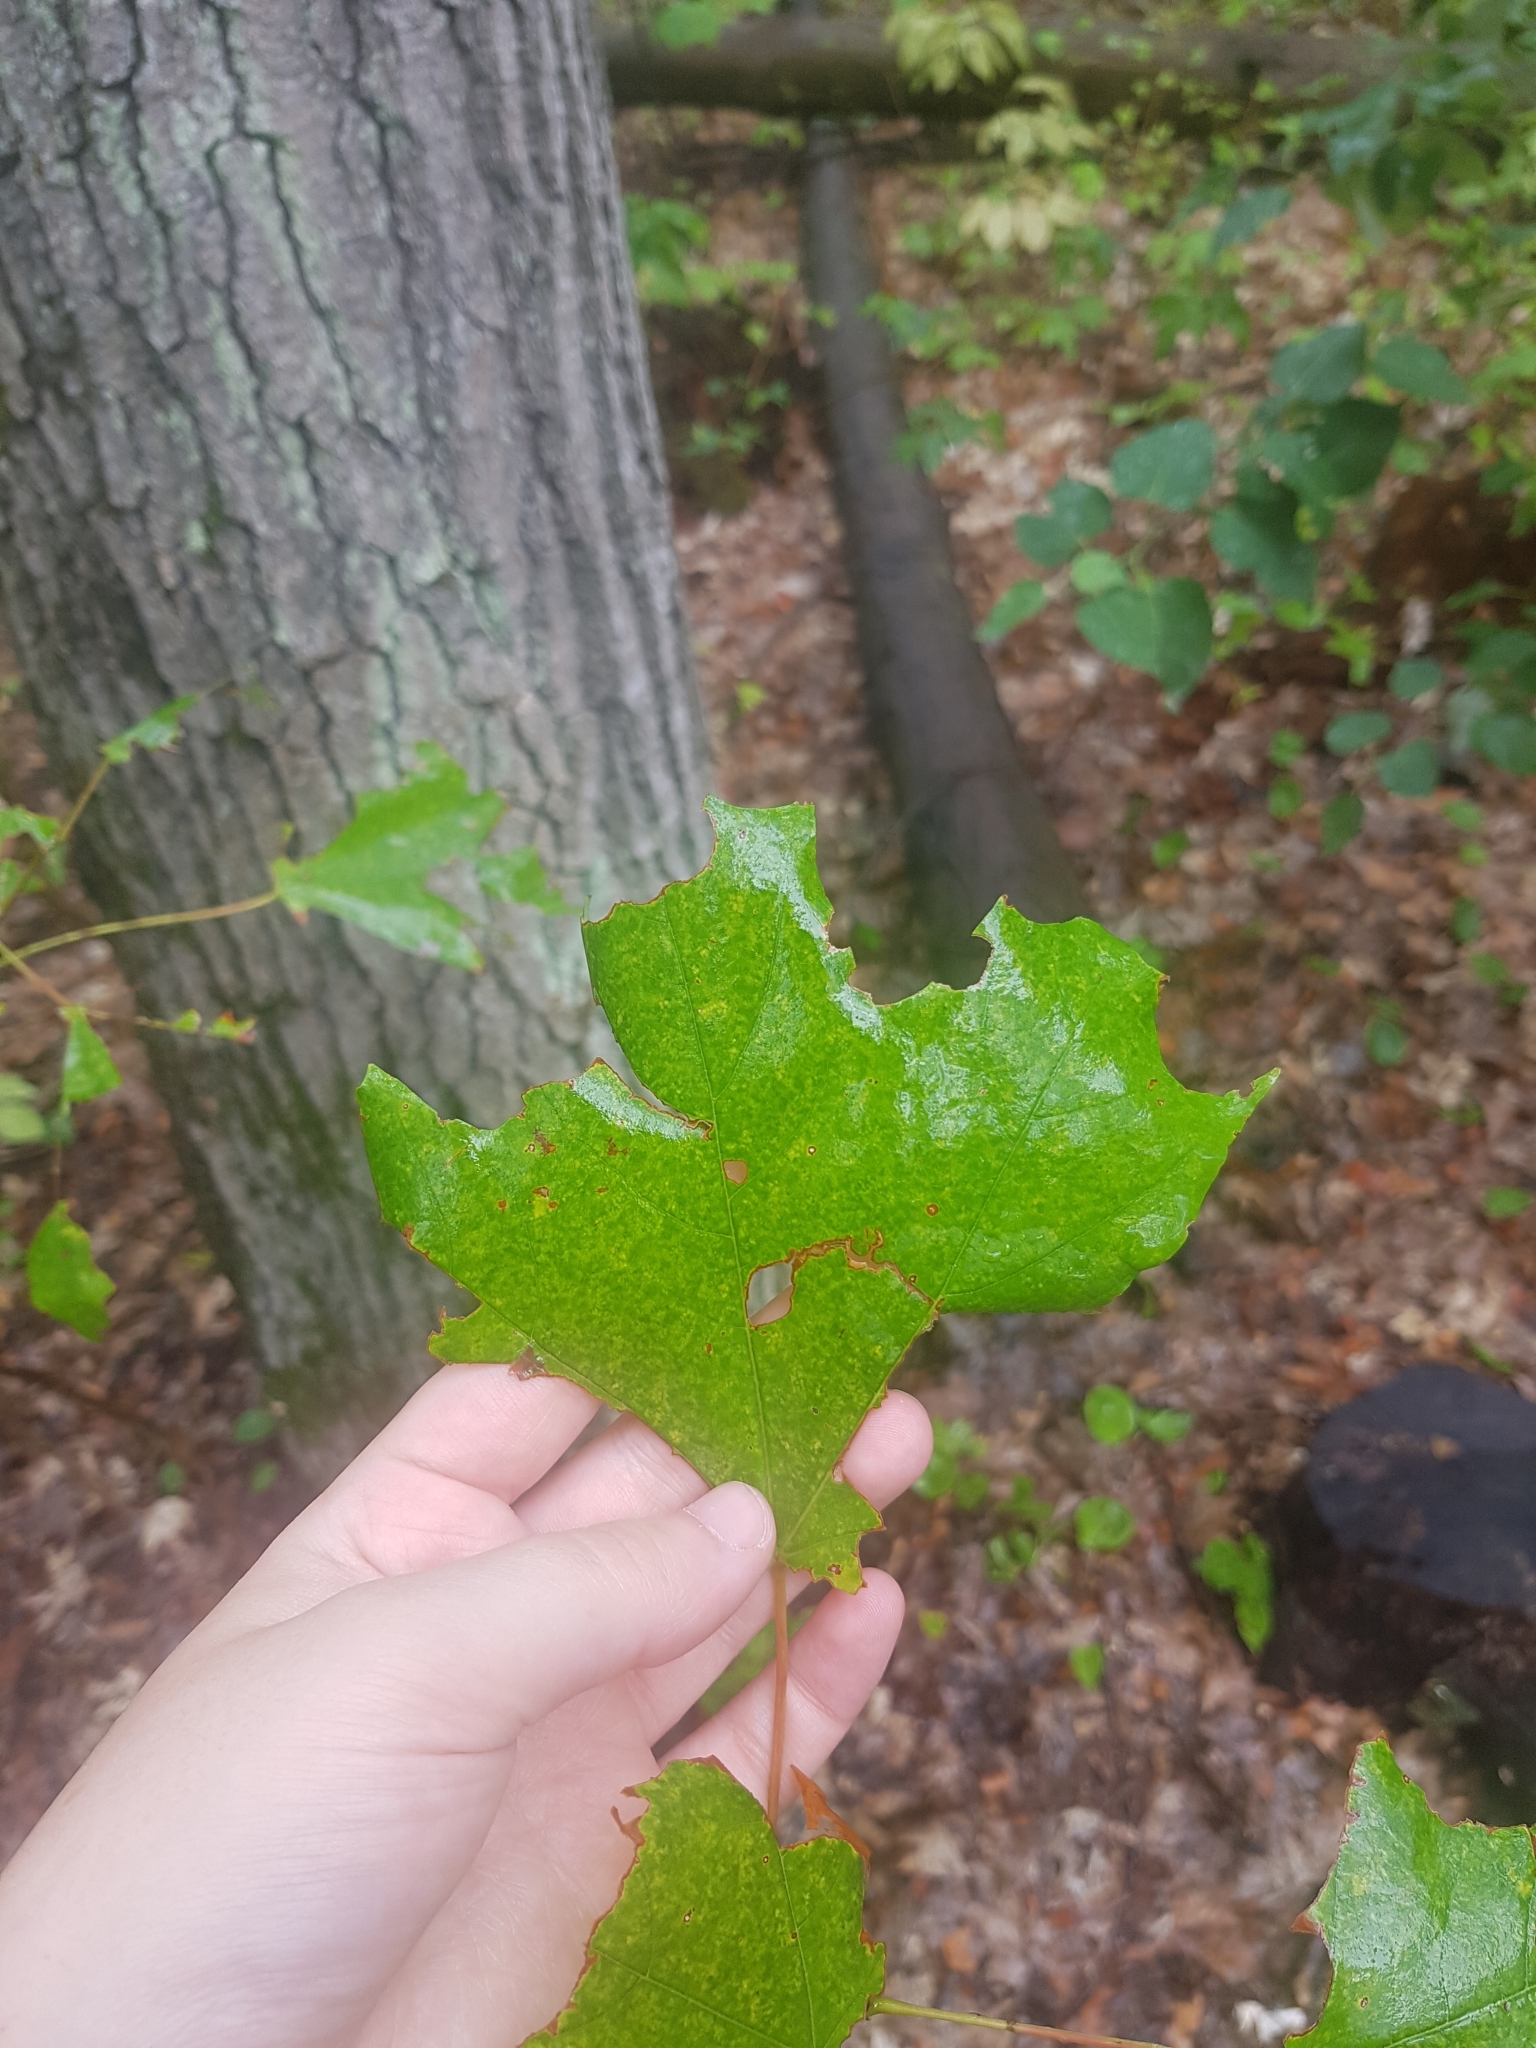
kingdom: Plantae
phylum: Tracheophyta
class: Magnoliopsida
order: Sapindales
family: Sapindaceae
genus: Acer
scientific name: Acer saccharum
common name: Sugar maple
